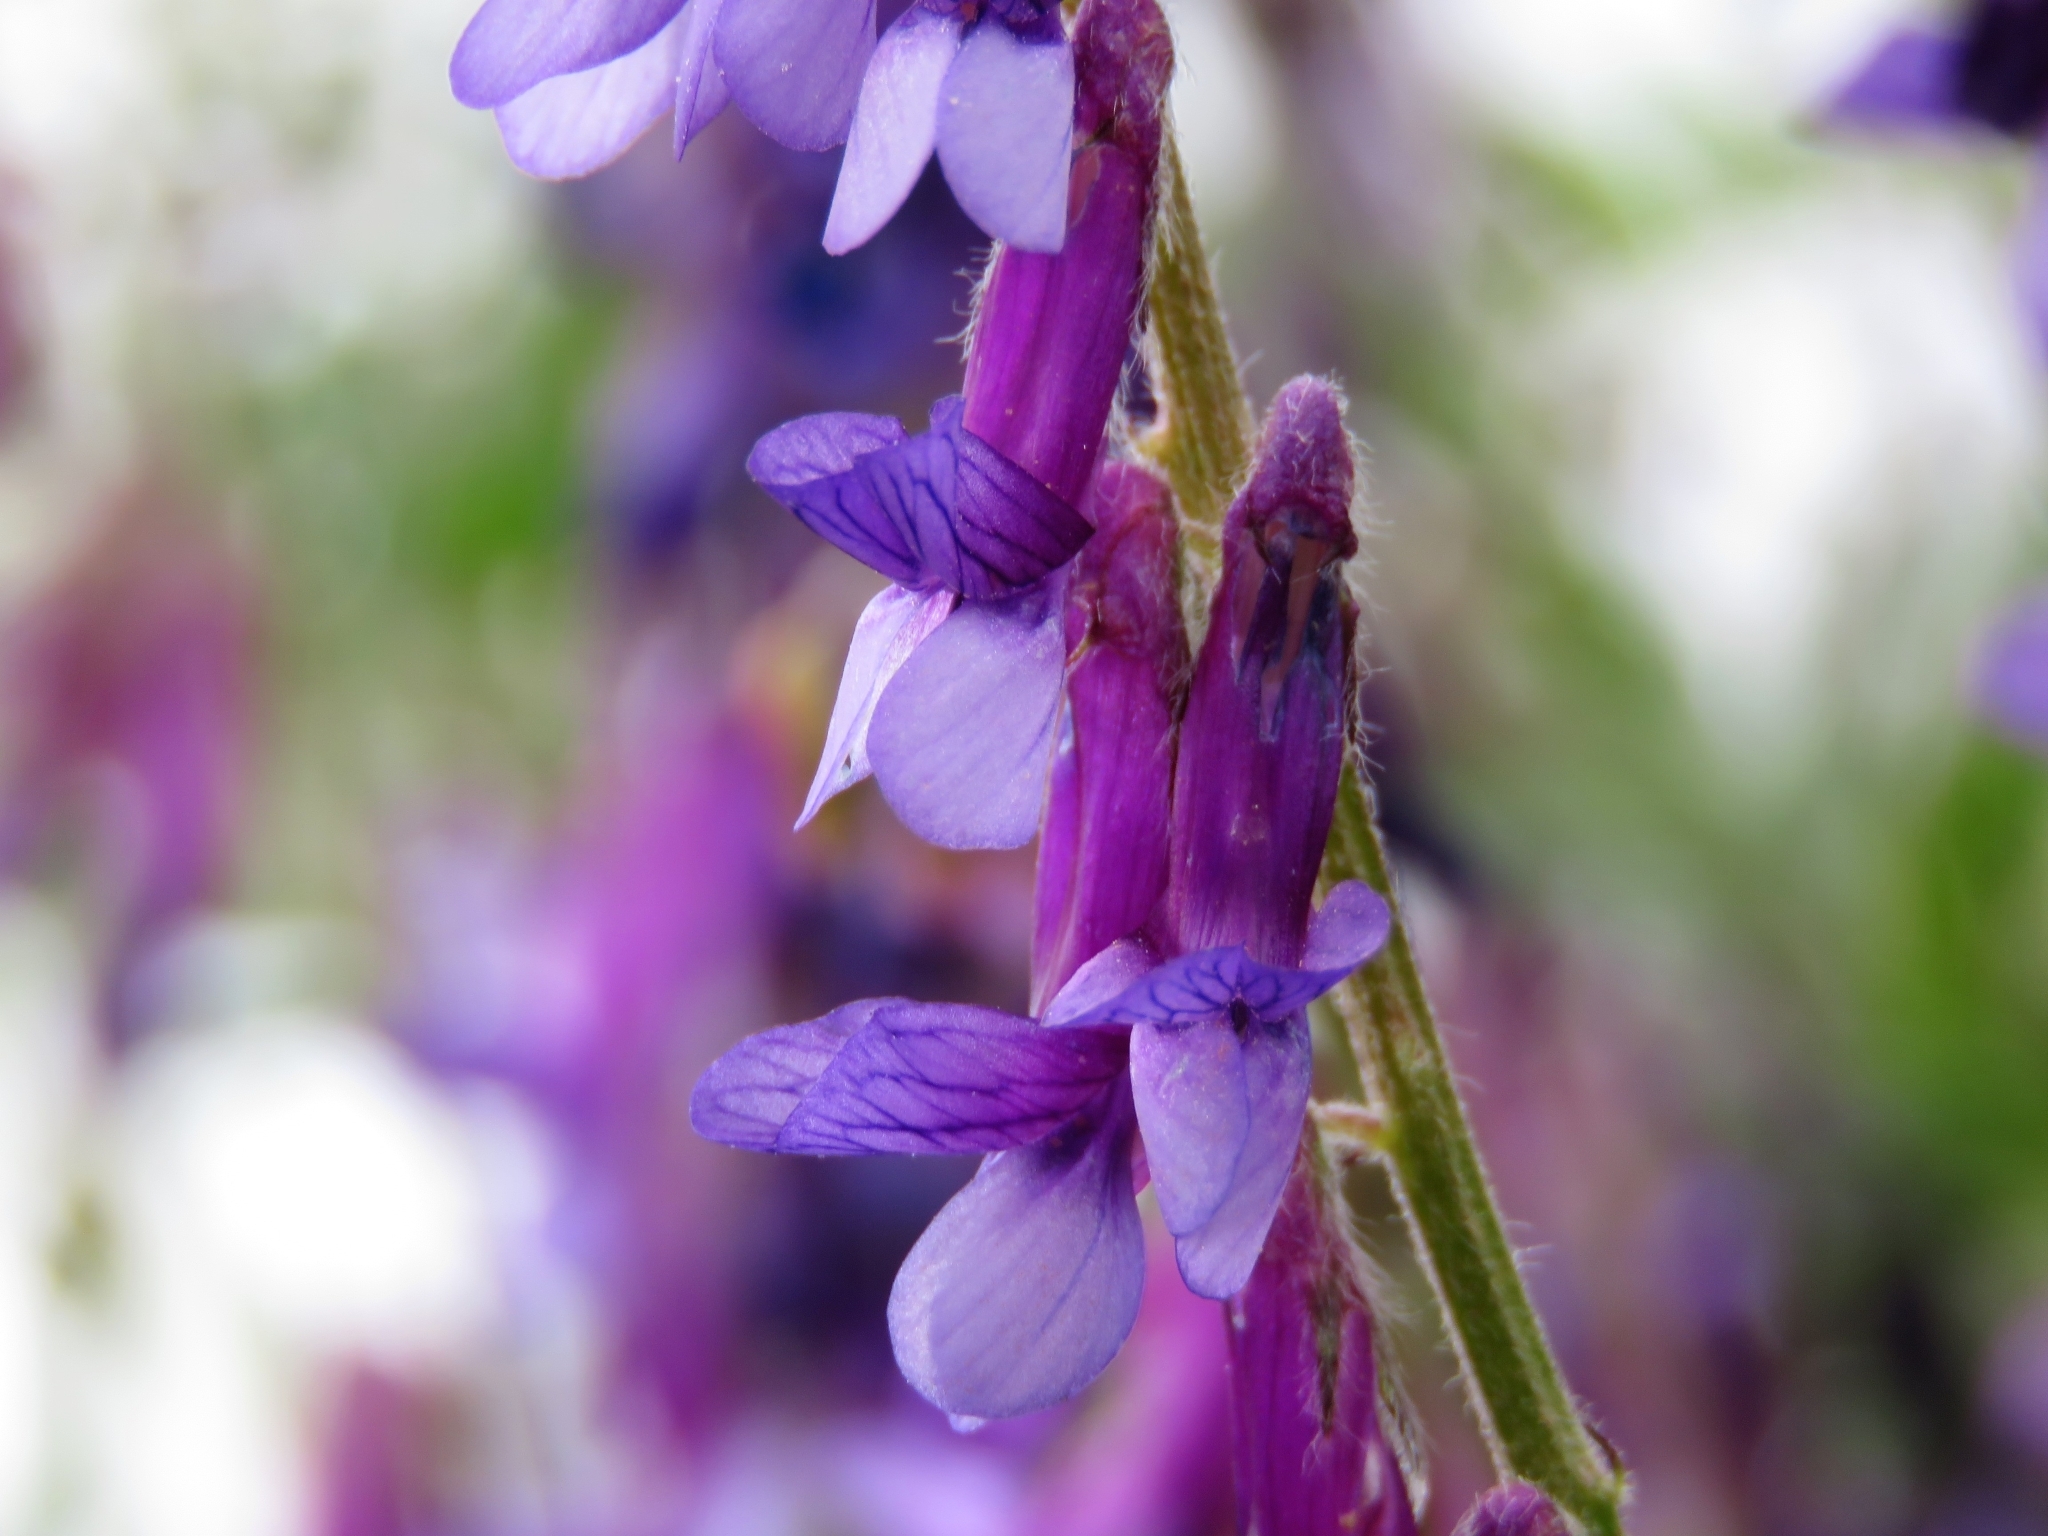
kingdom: Plantae
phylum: Tracheophyta
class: Magnoliopsida
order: Fabales
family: Fabaceae
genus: Vicia
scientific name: Vicia villosa
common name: Fodder vetch
